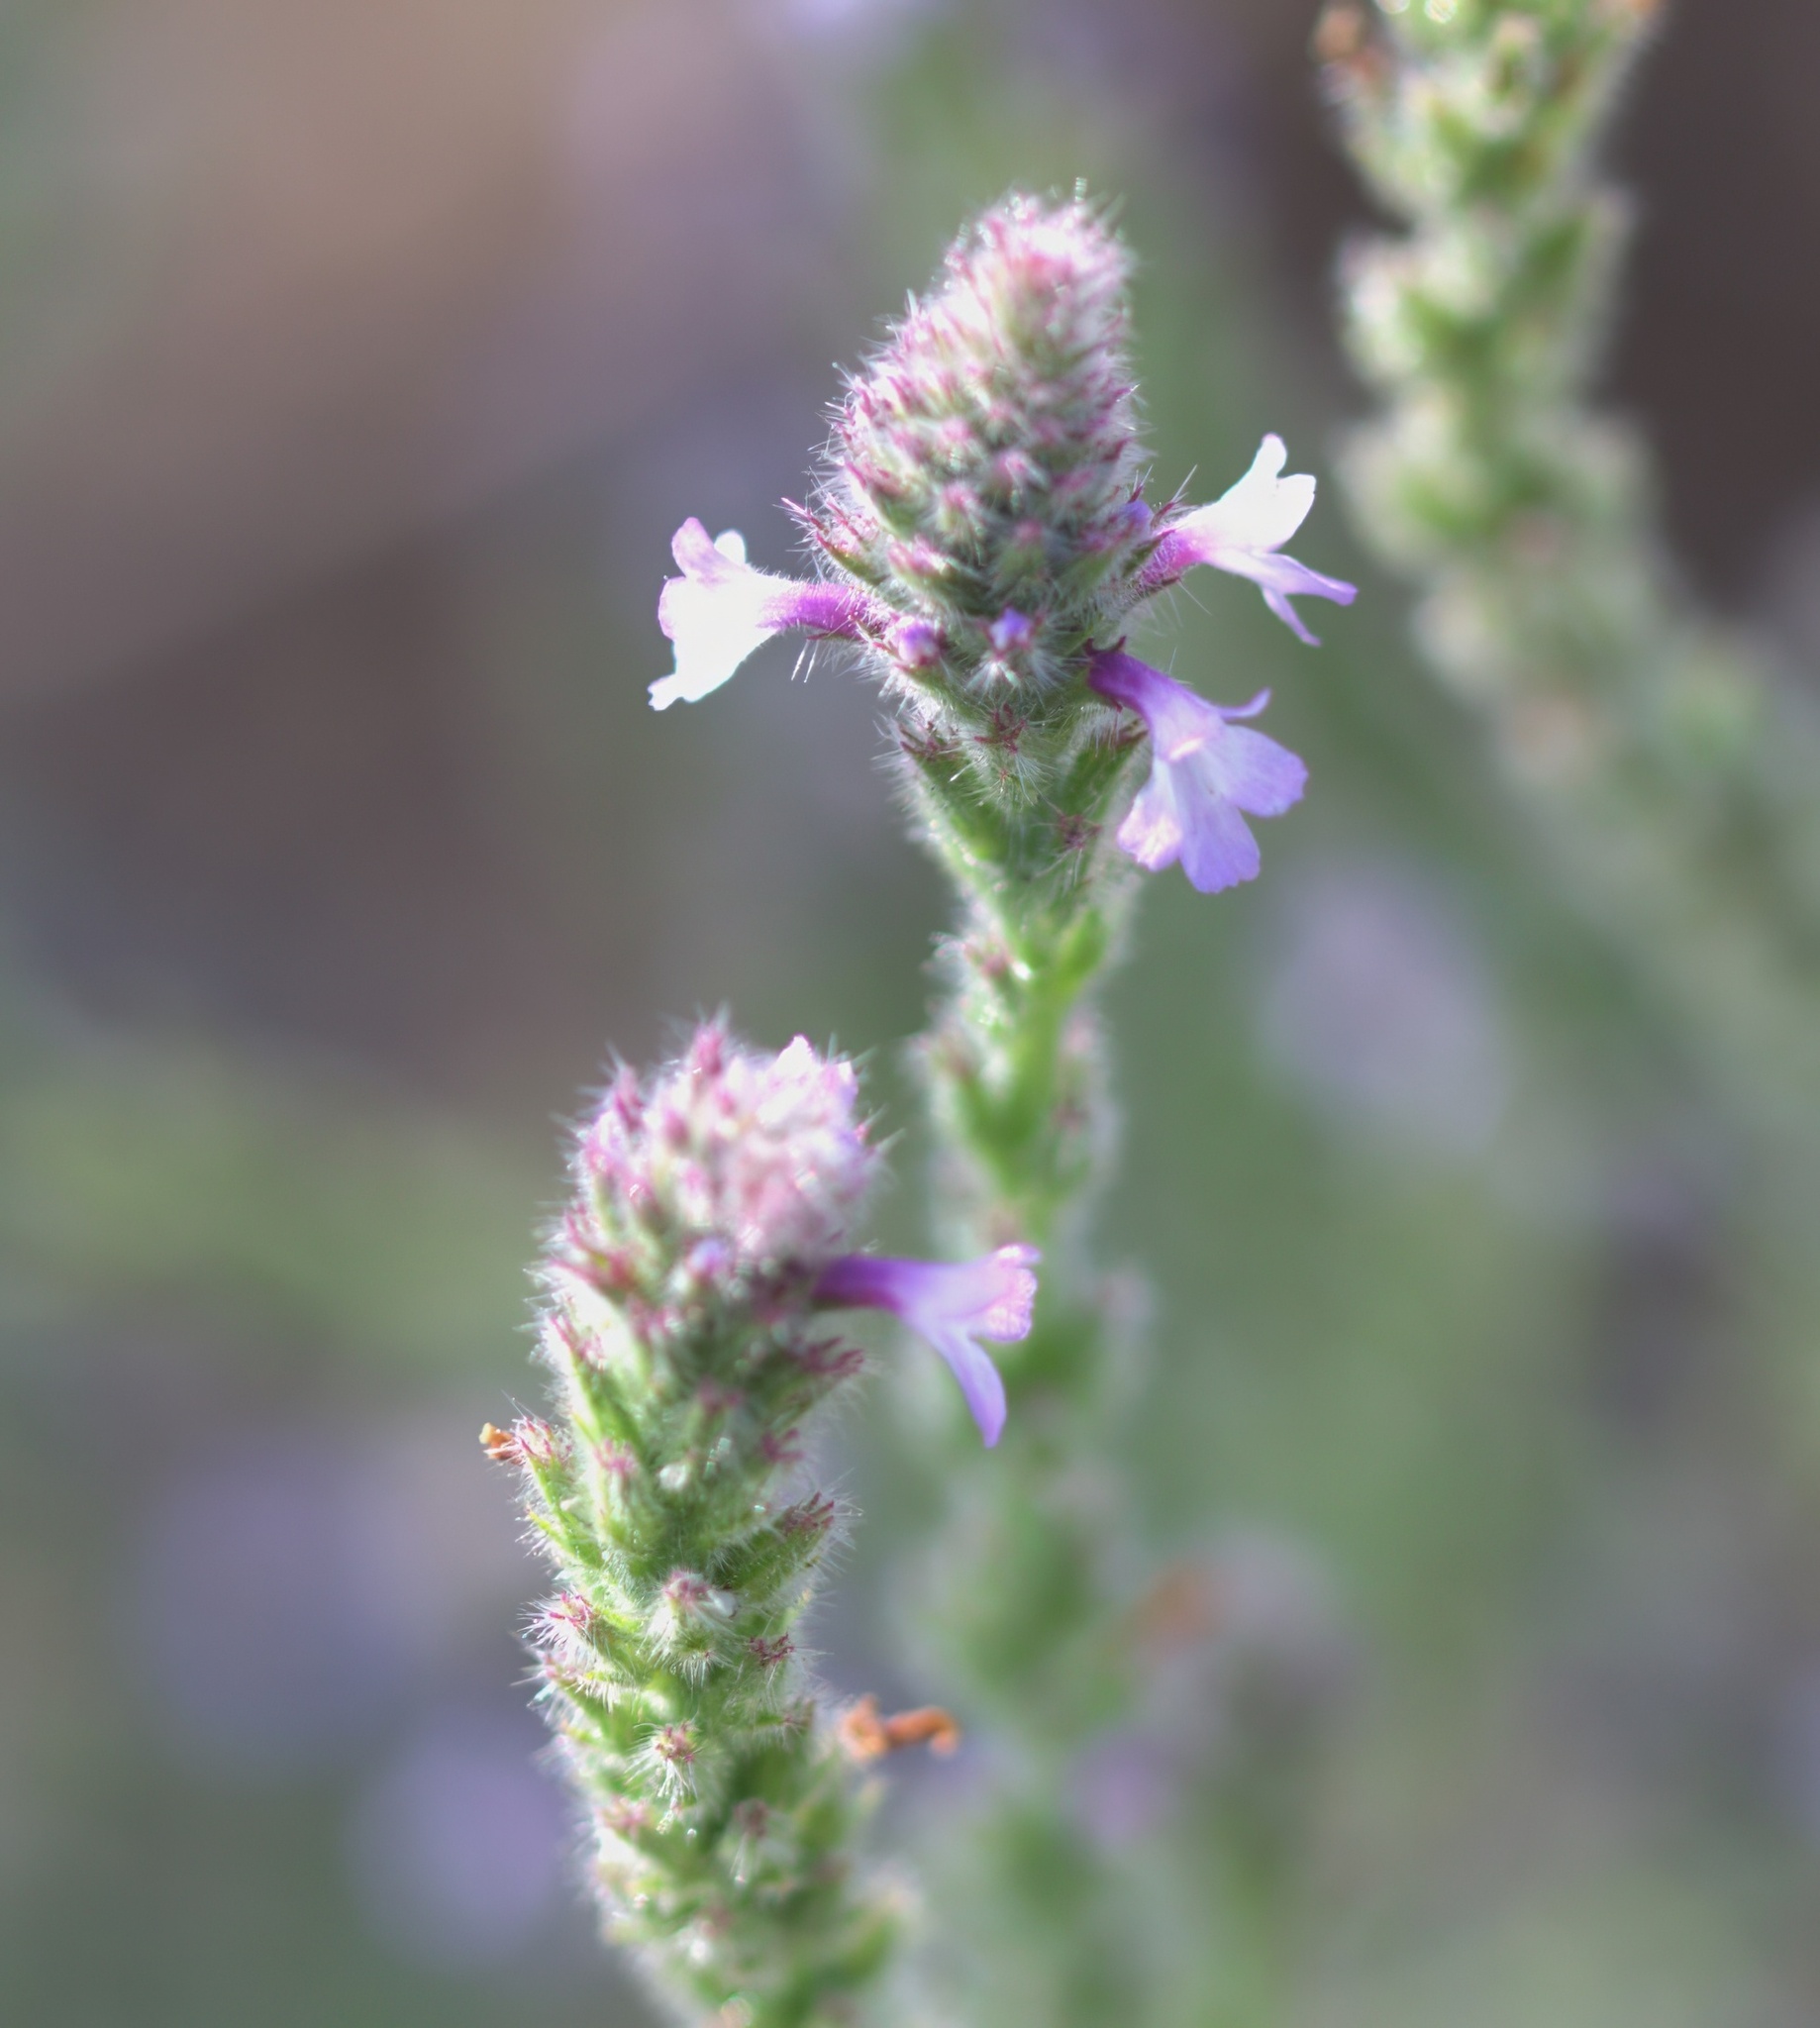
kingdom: Plantae
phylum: Tracheophyta
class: Magnoliopsida
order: Lamiales
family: Verbenaceae
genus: Verbena
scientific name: Verbena lasiostachys
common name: Vervain
